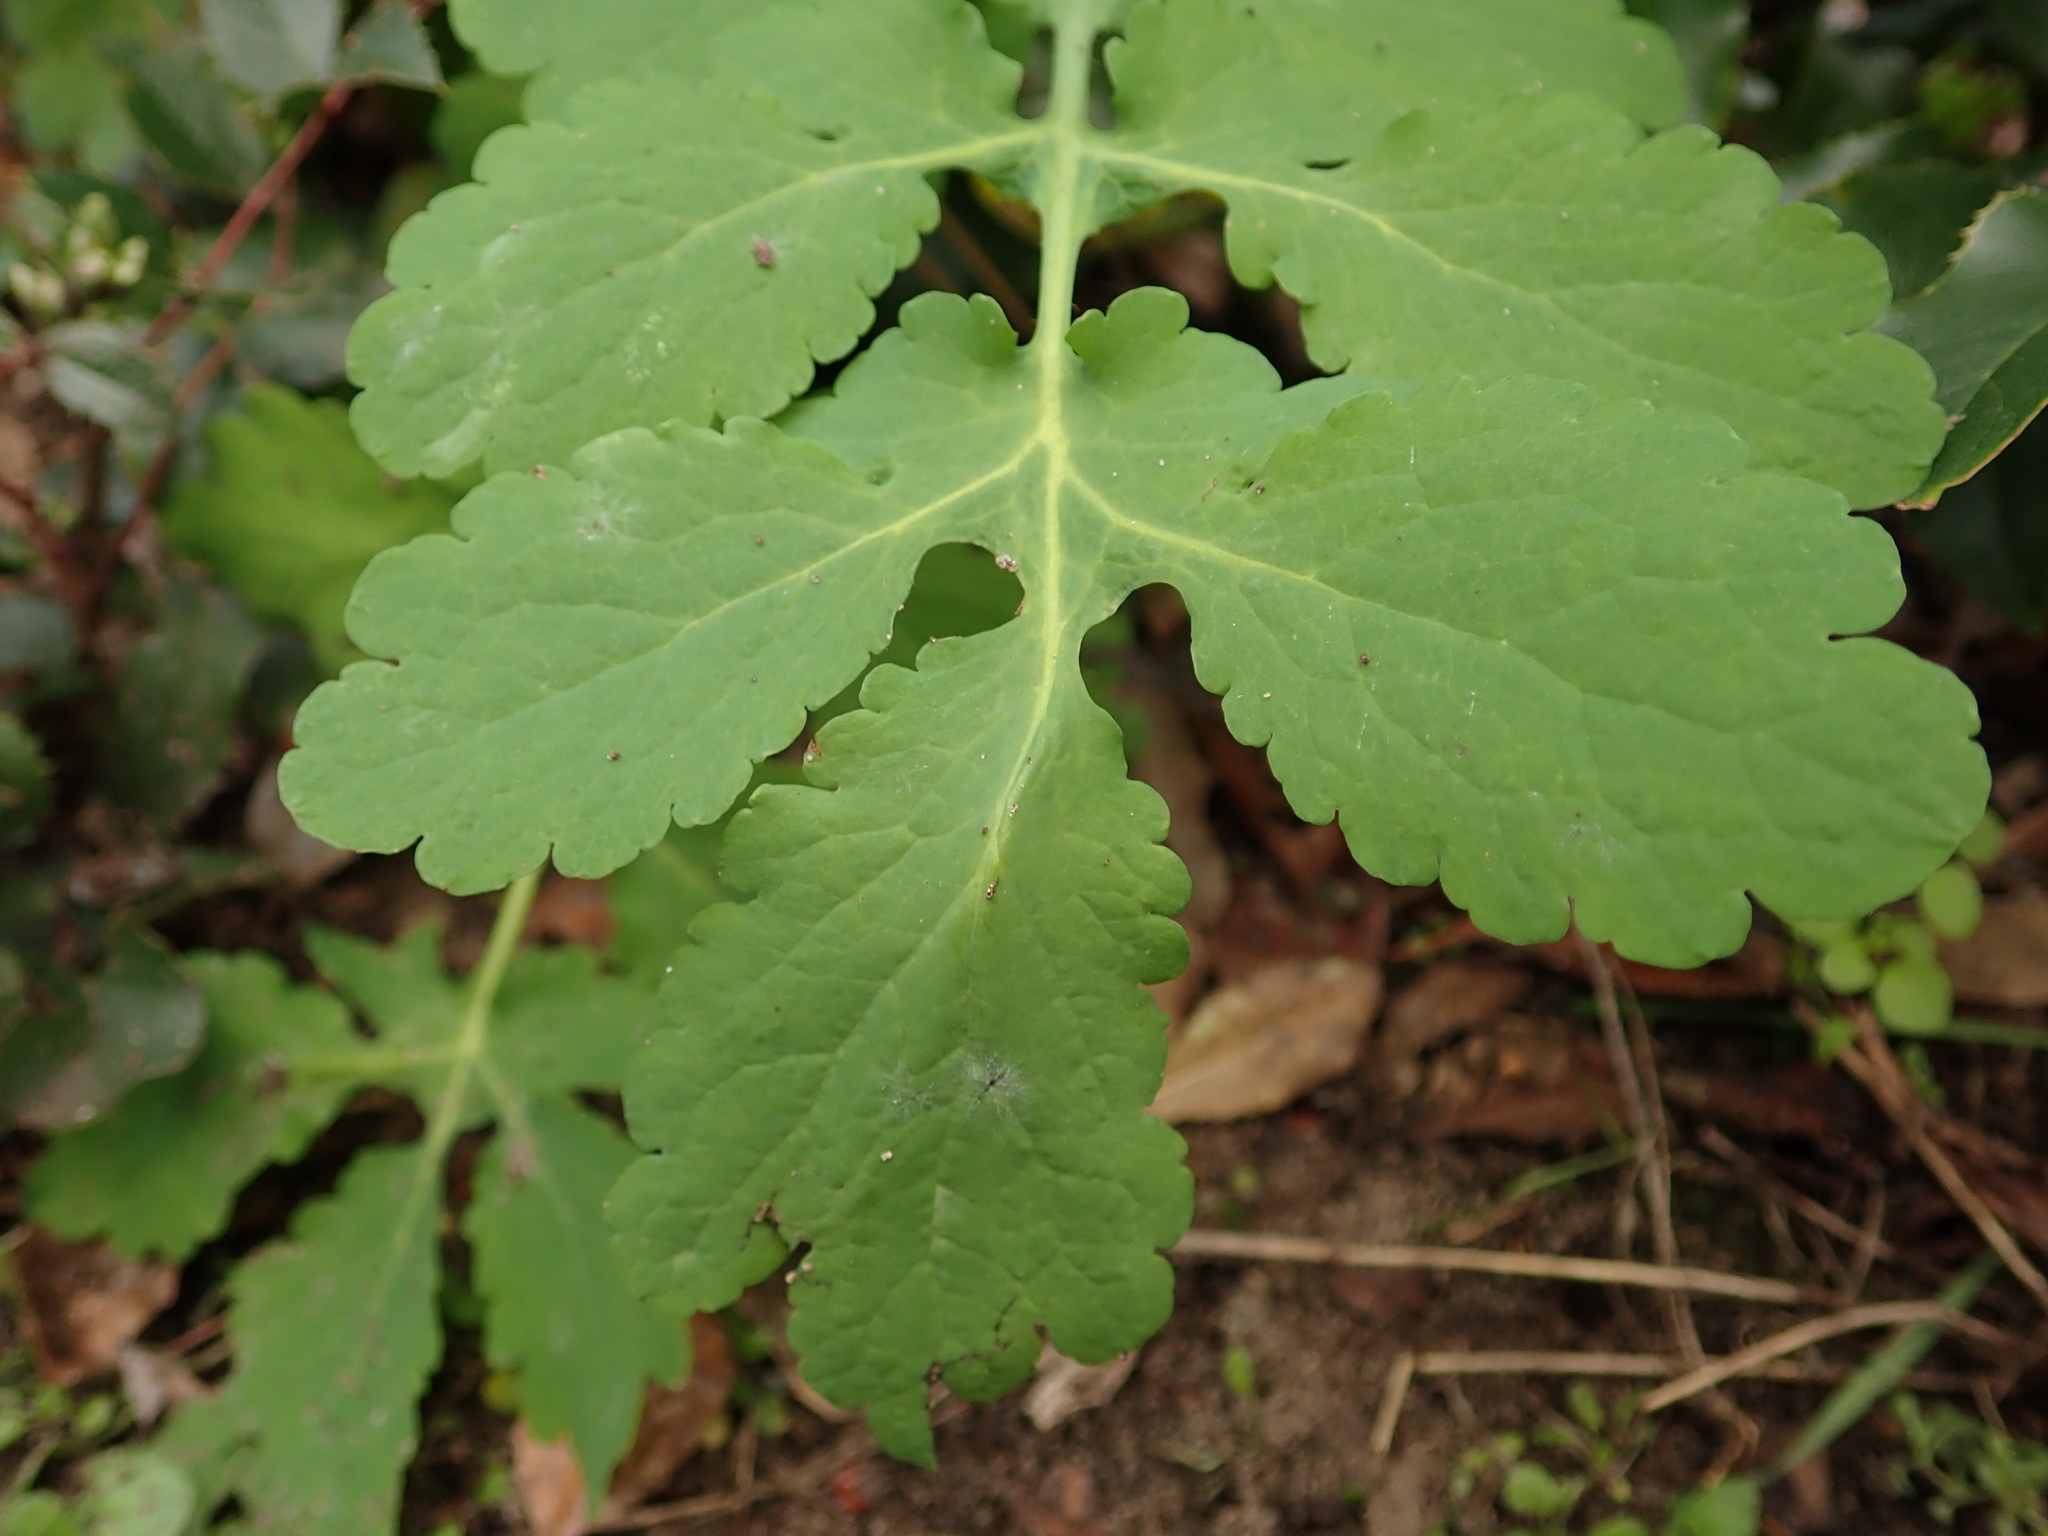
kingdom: Plantae
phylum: Tracheophyta
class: Magnoliopsida
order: Ranunculales
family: Papaveraceae
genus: Chelidonium
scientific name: Chelidonium majus
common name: Greater celandine
